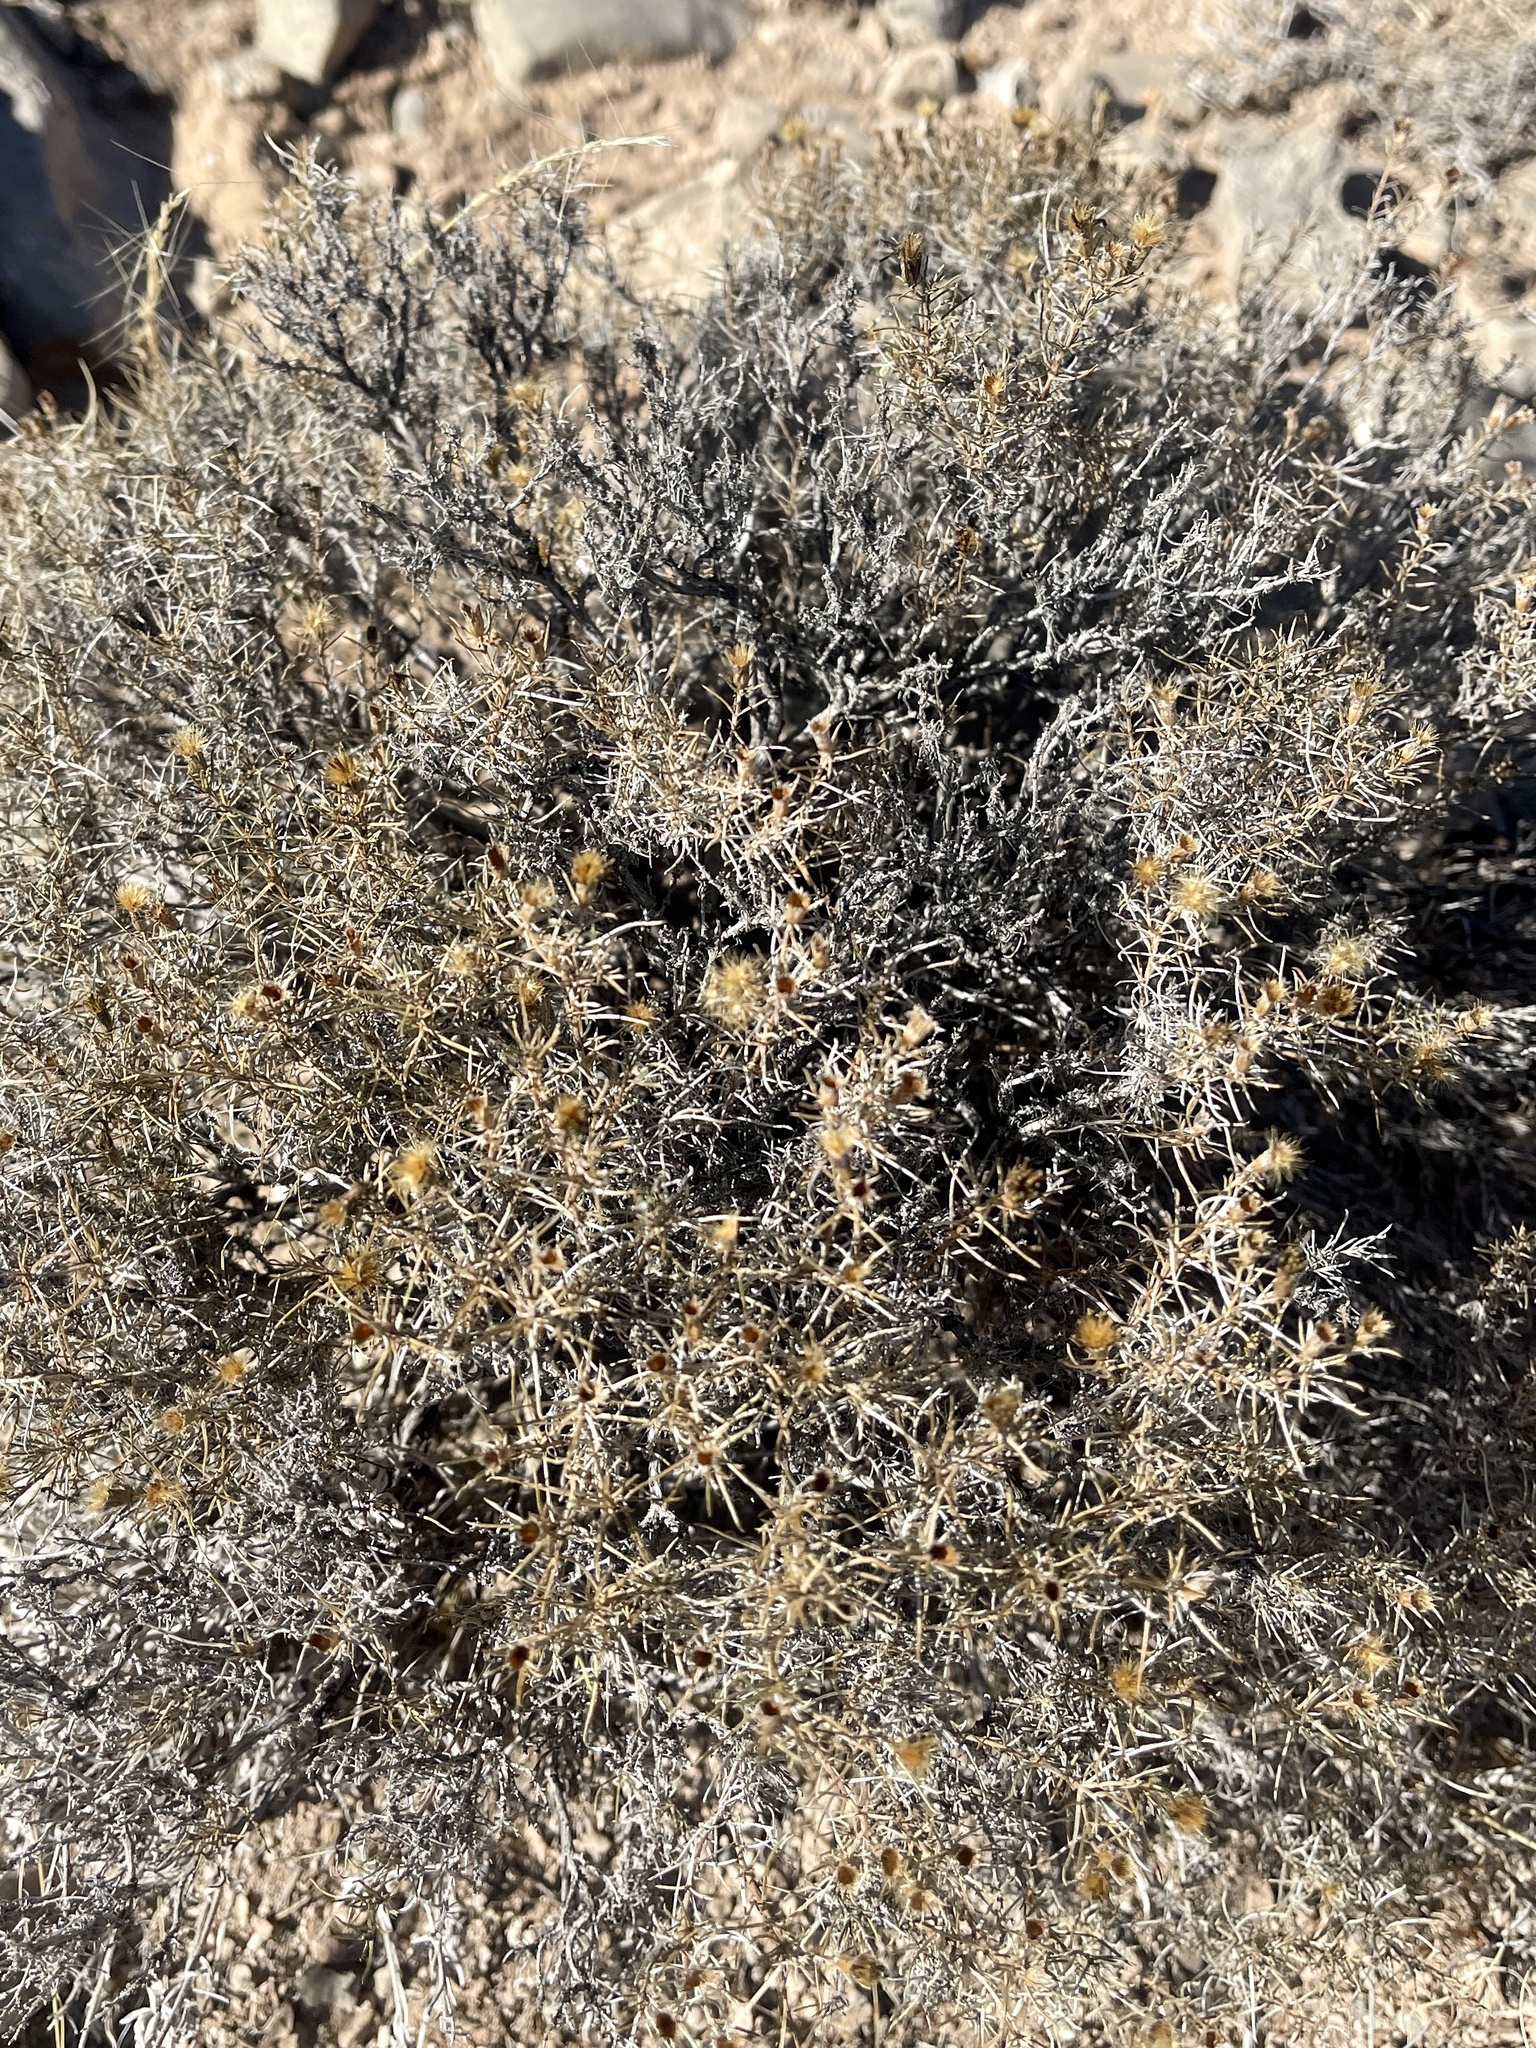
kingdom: Plantae
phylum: Tracheophyta
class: Magnoliopsida
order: Asterales
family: Asteraceae
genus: Thymophylla
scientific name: Thymophylla acerosa
